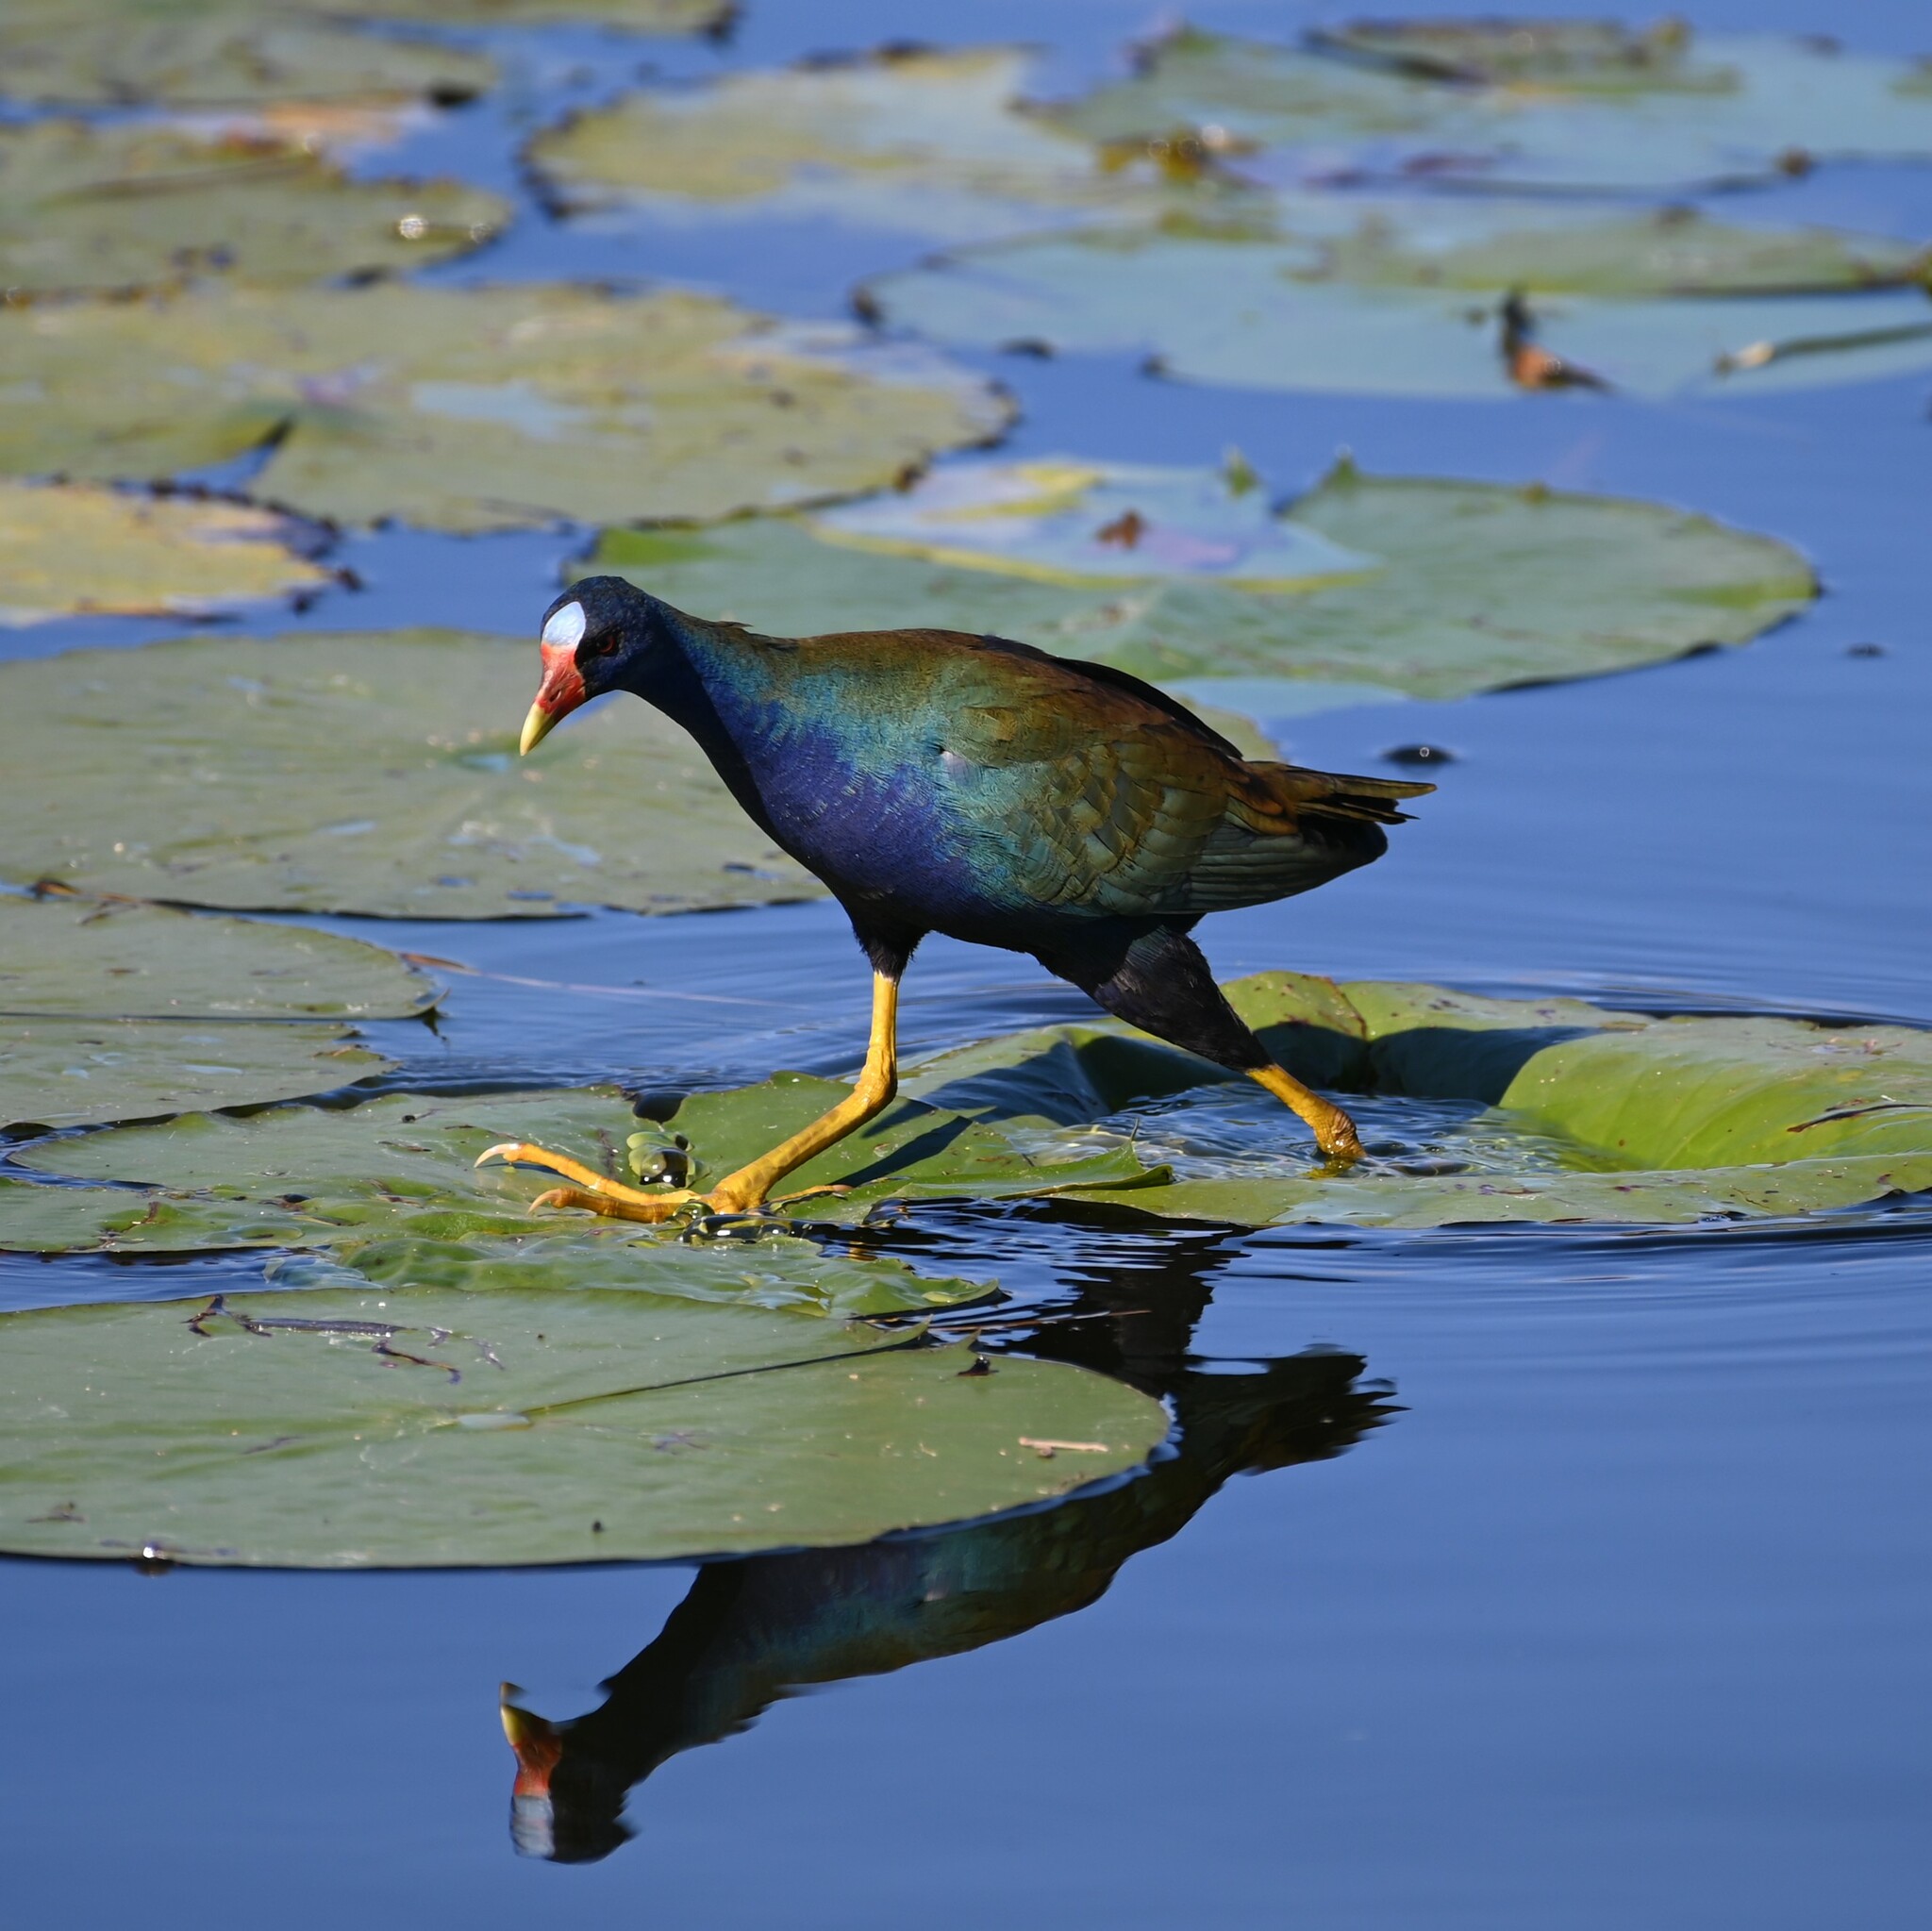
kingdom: Animalia
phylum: Chordata
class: Aves
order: Gruiformes
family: Rallidae
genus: Porphyrio
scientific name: Porphyrio martinica
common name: Purple gallinule
